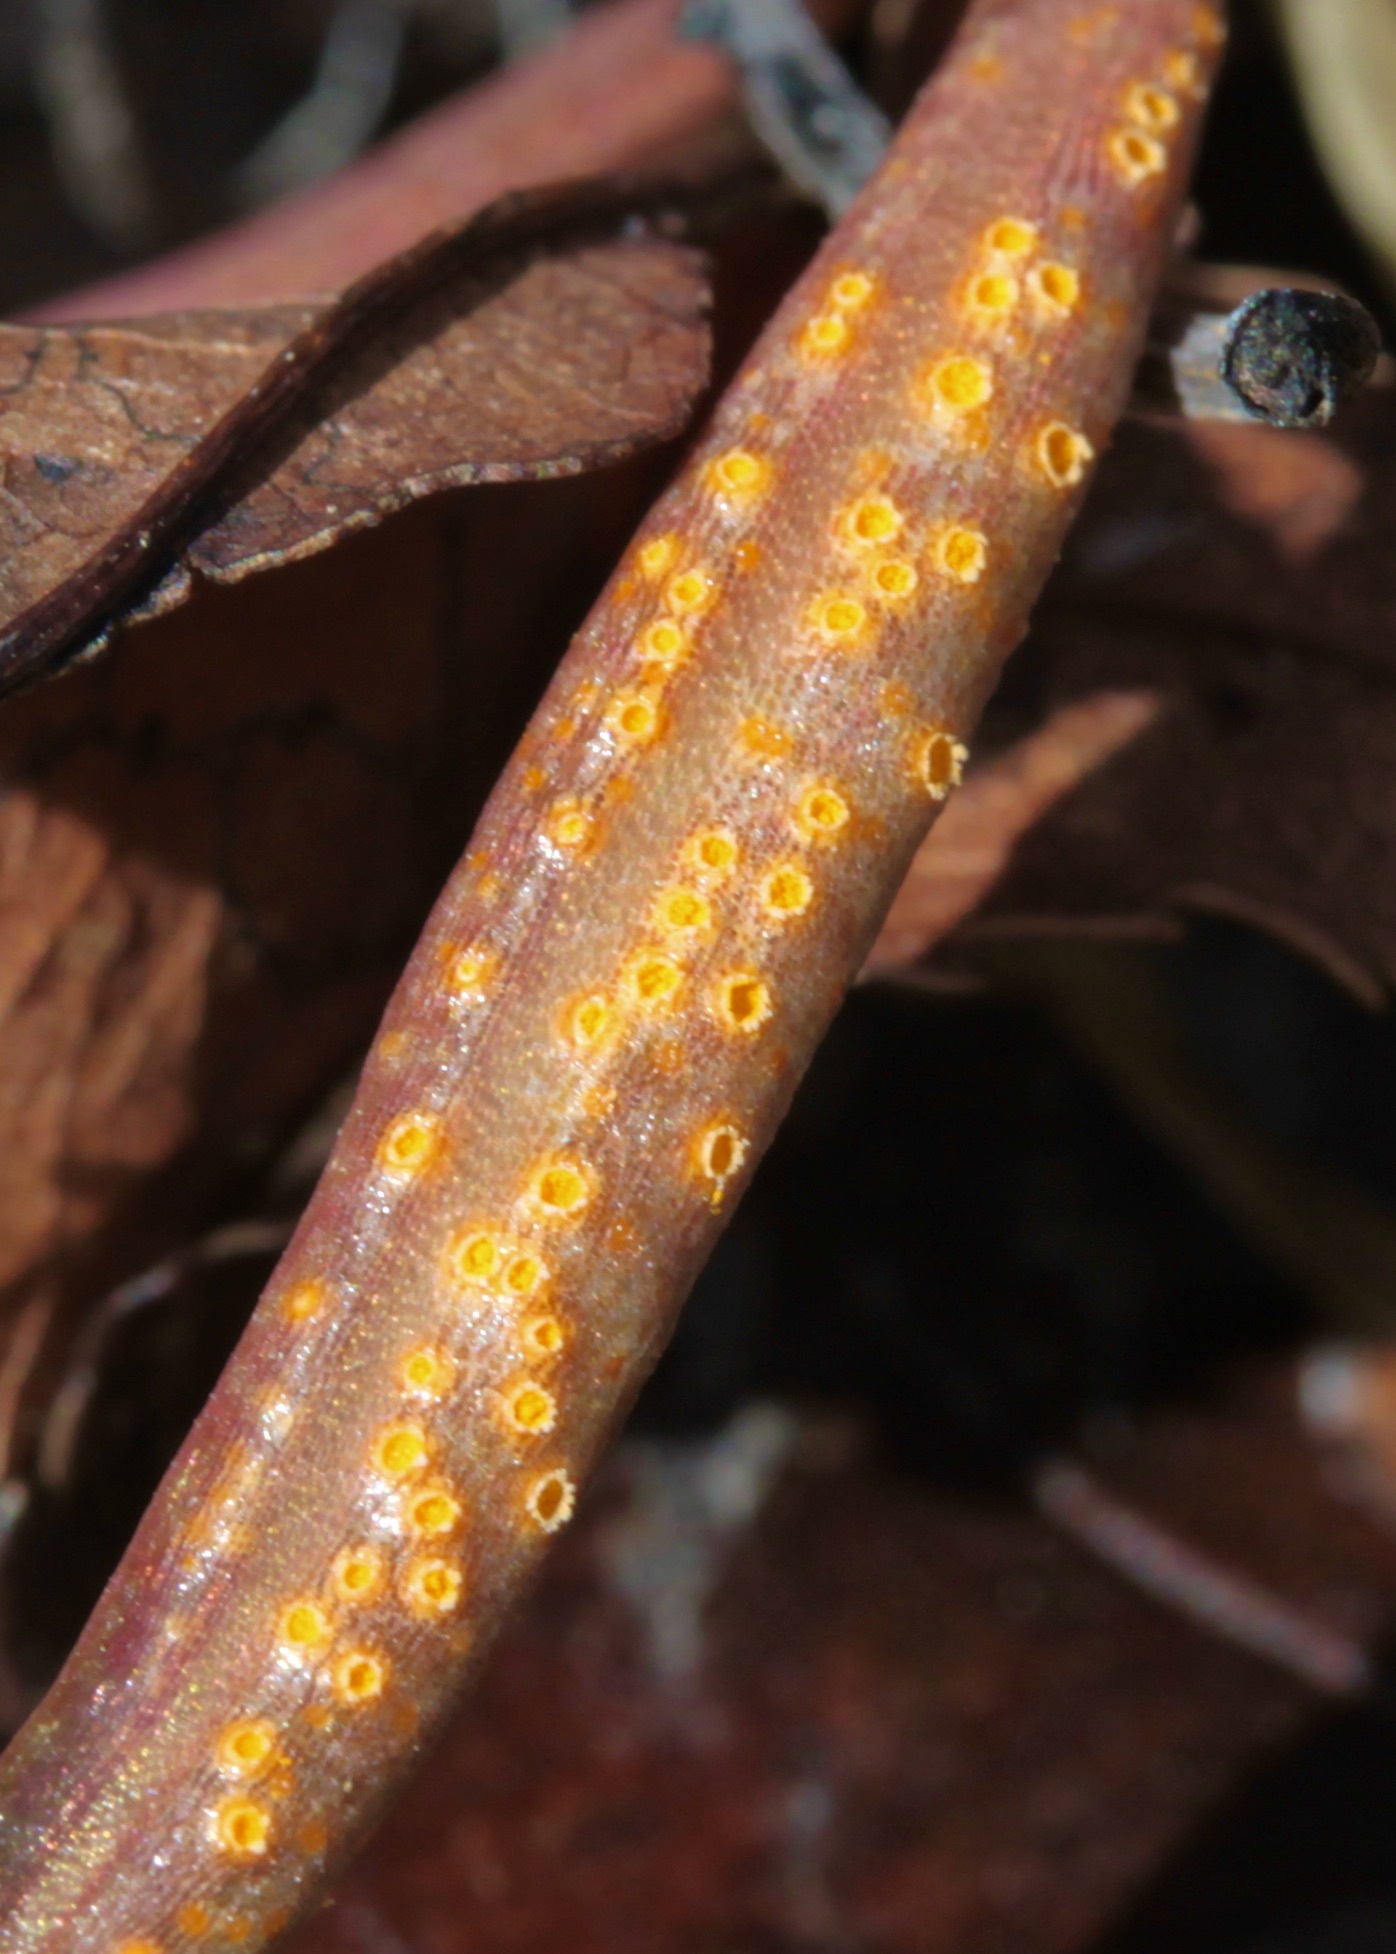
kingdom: Fungi
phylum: Basidiomycota
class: Pucciniomycetes
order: Pucciniales
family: Pucciniaceae
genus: Puccinia
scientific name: Puccinia mariae-wilsoniae
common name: Spring beauty rust
